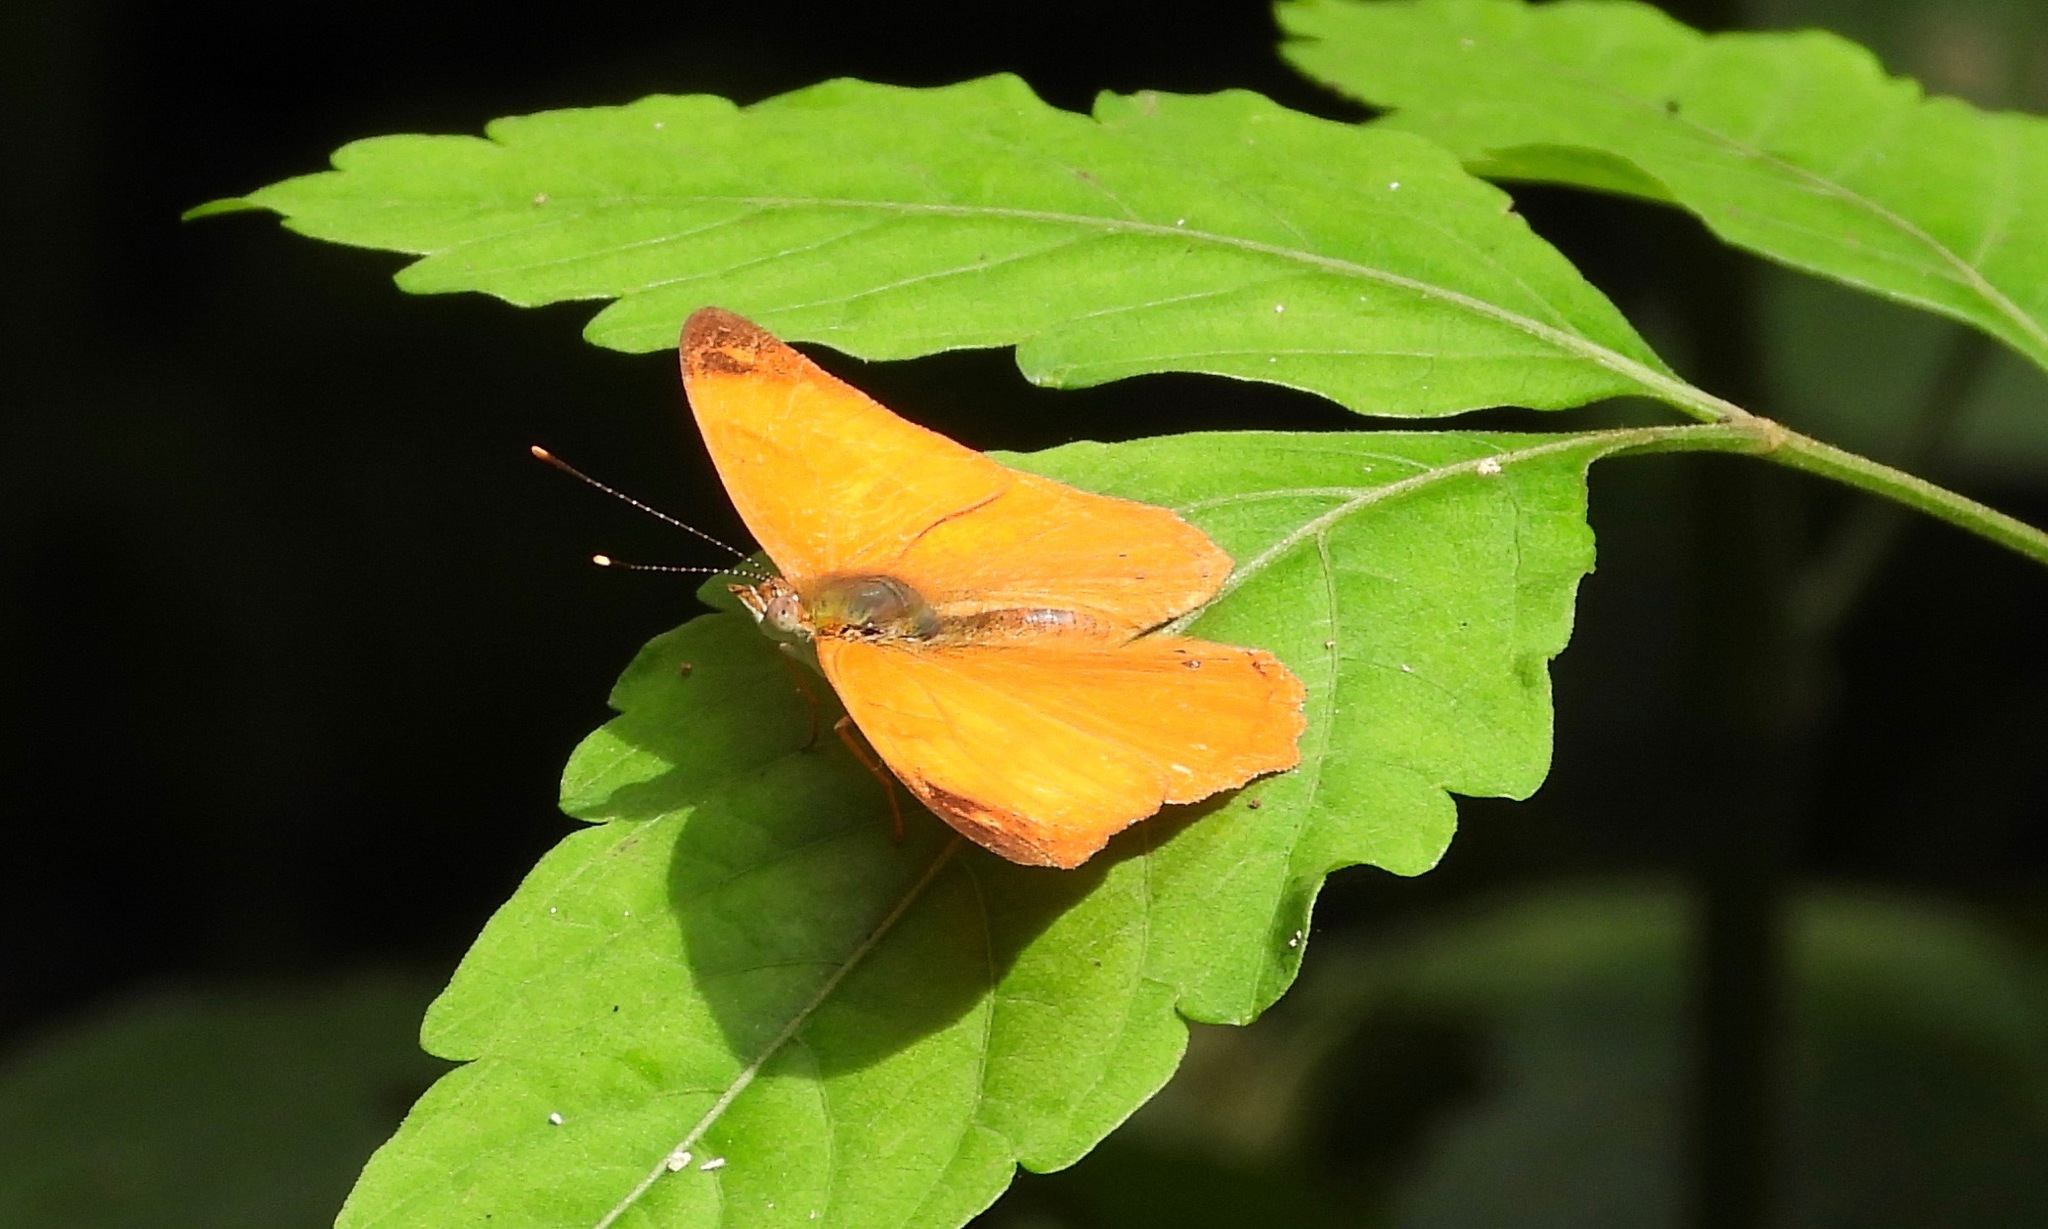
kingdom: Animalia
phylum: Arthropoda
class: Insecta
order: Lepidoptera
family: Nymphalidae
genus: Temenis
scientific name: Temenis laothoe
